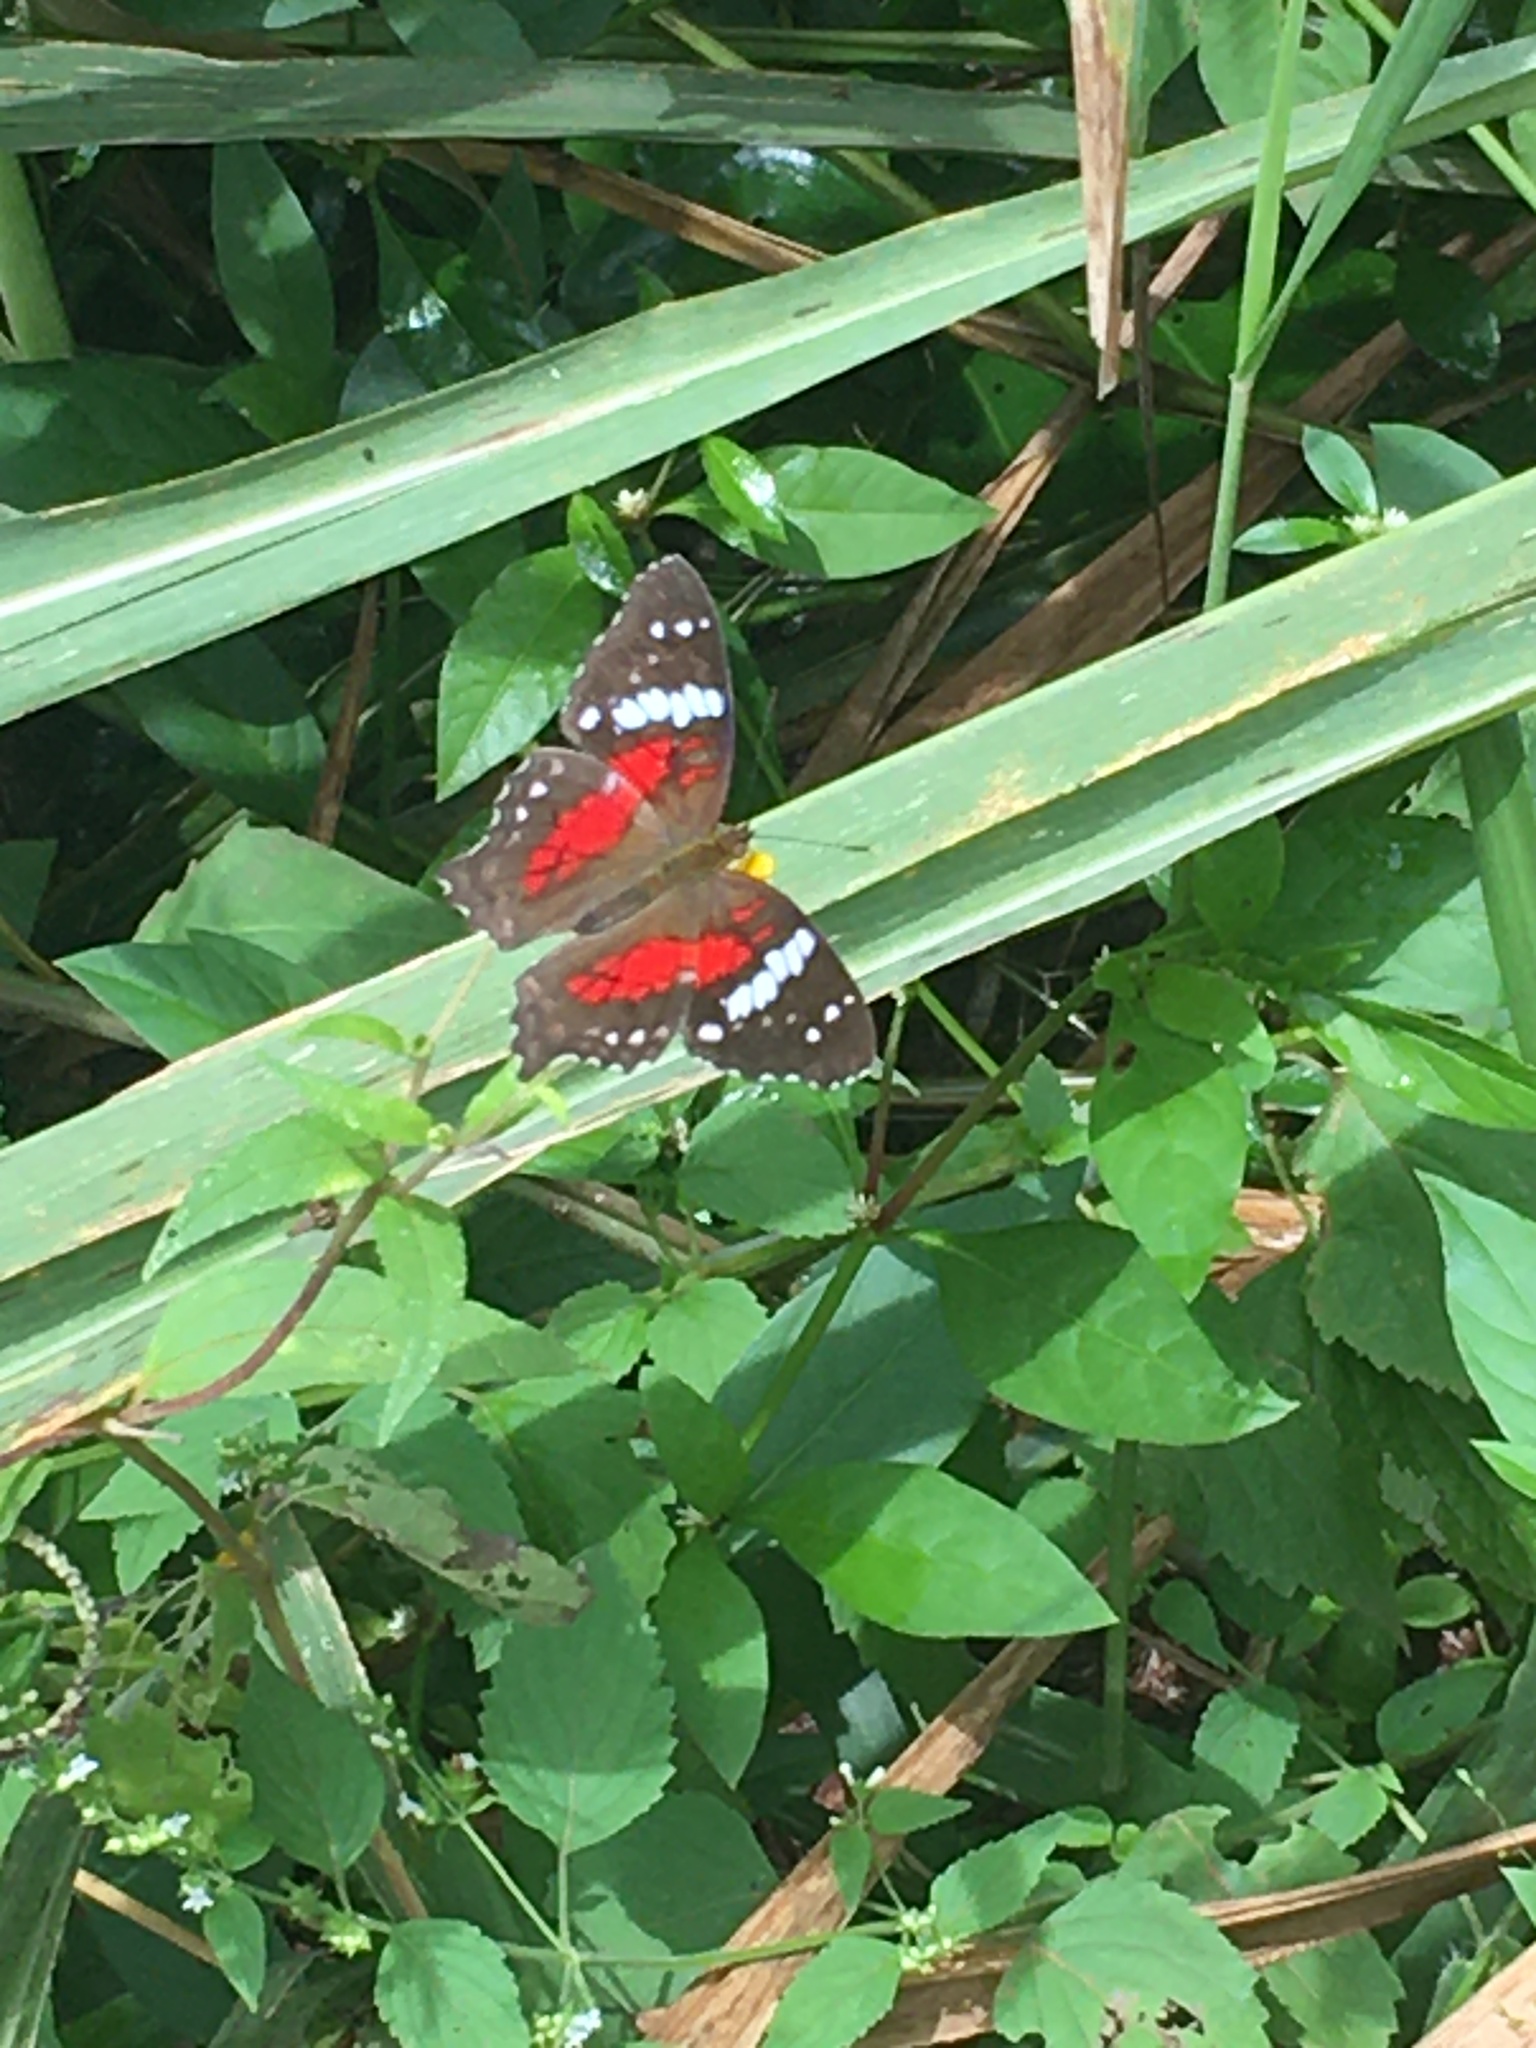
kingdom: Animalia
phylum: Arthropoda
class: Insecta
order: Lepidoptera
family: Nymphalidae
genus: Anartia
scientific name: Anartia amathea
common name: Red peacock
